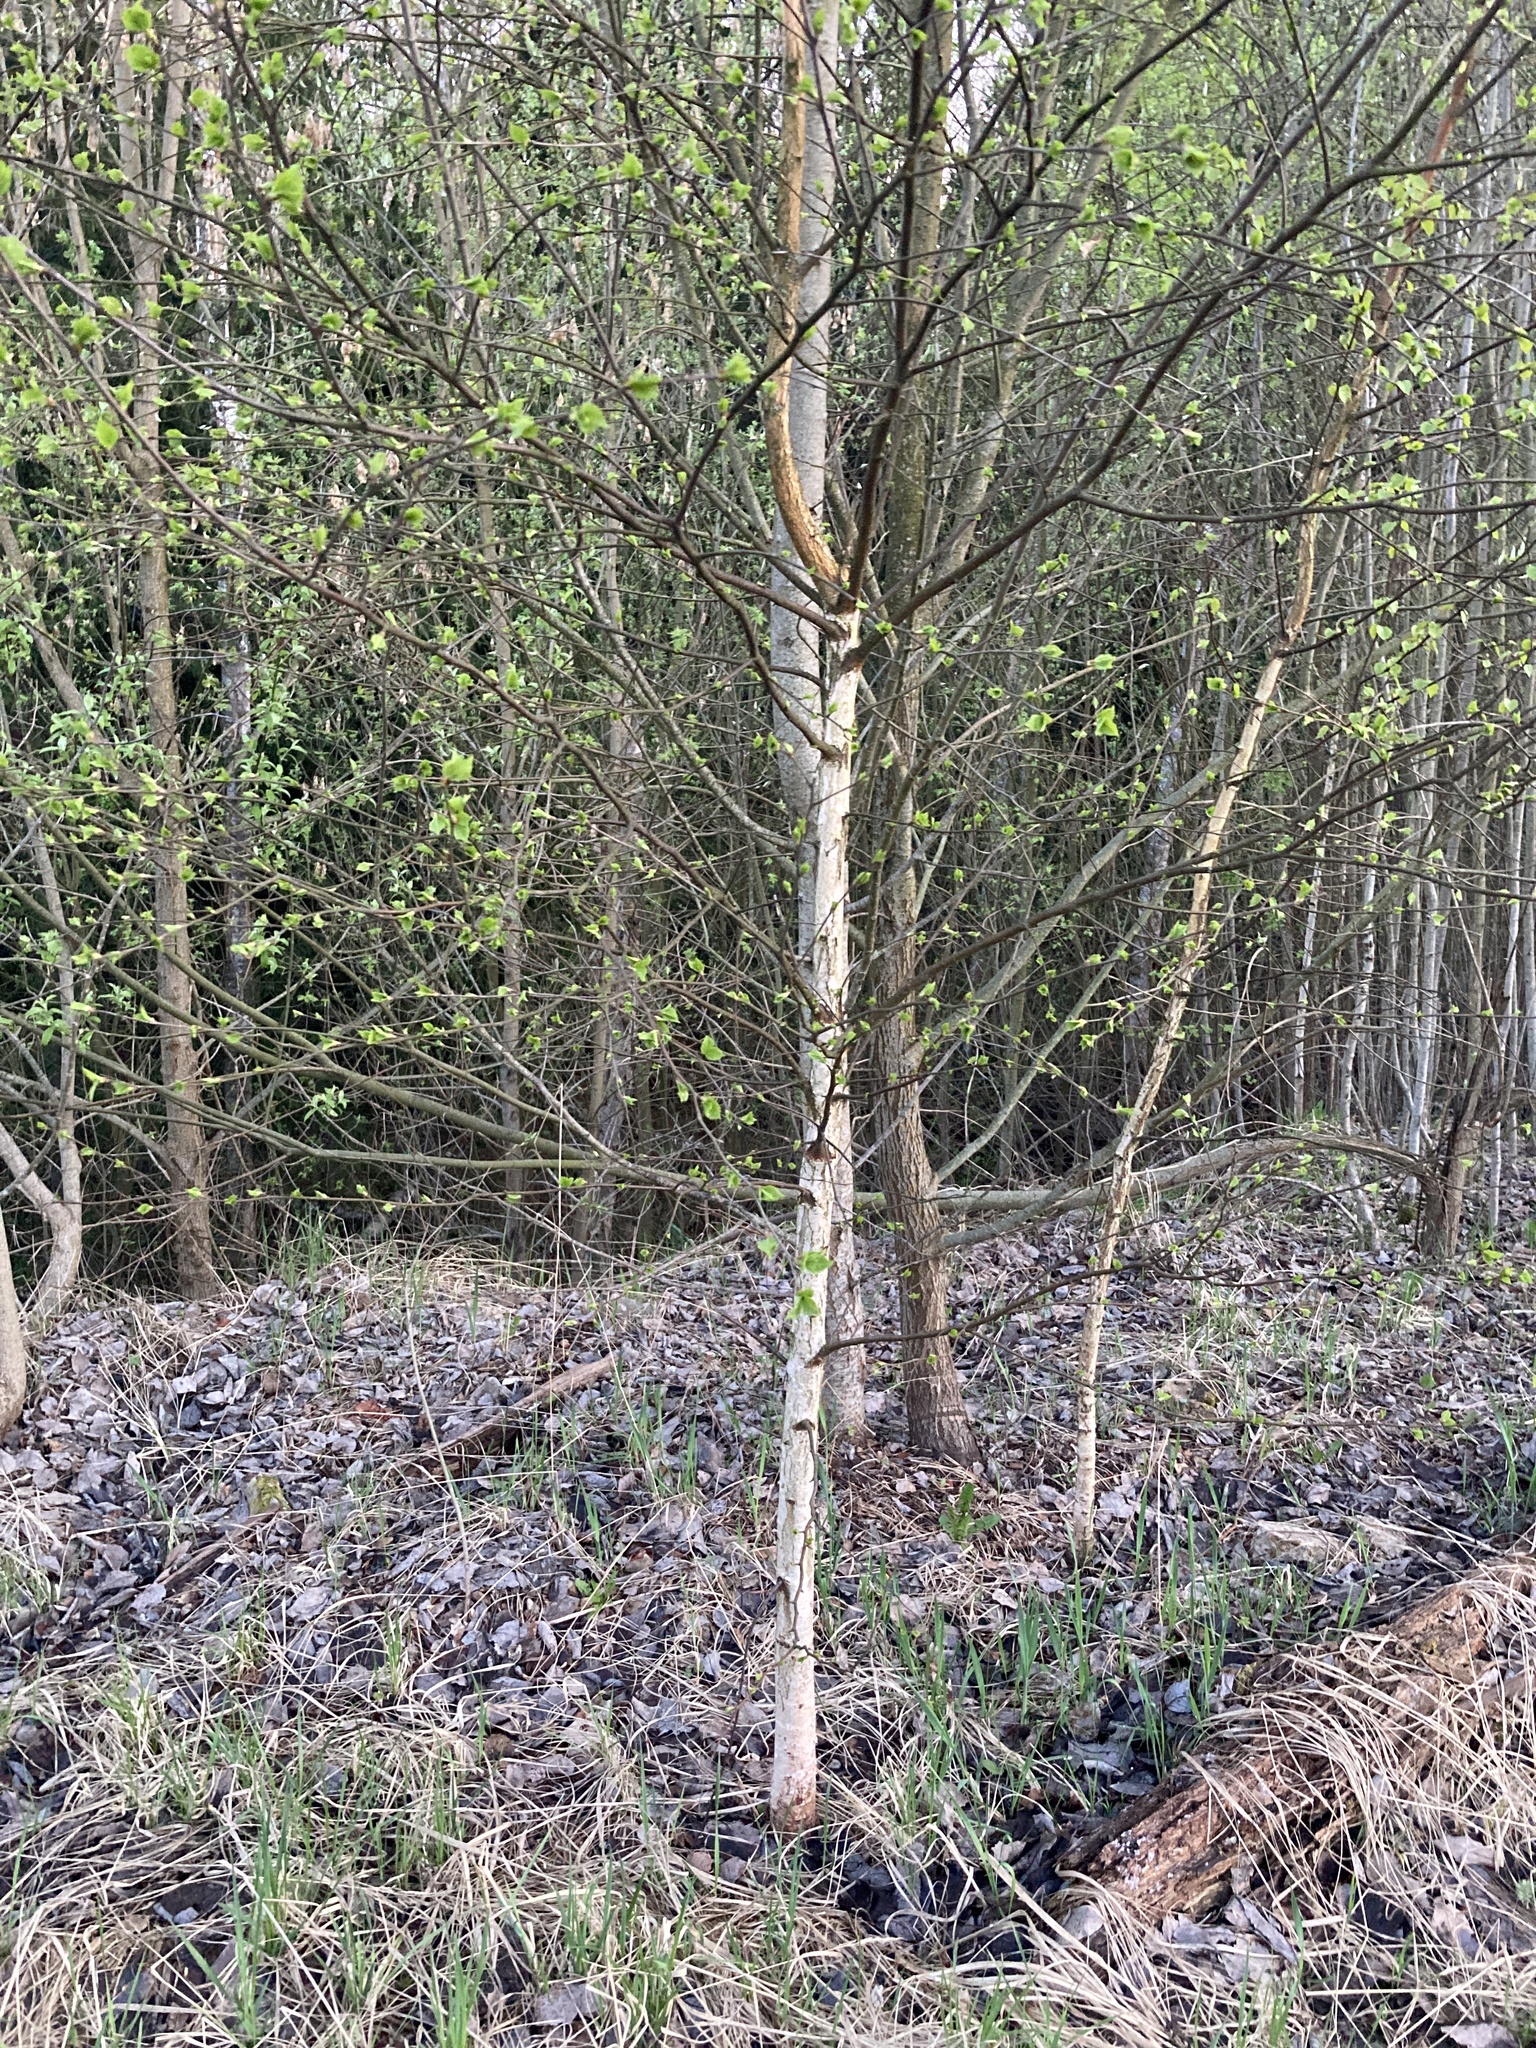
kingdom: Plantae
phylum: Tracheophyta
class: Magnoliopsida
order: Fagales
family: Betulaceae
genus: Betula
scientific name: Betula pendula
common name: Silver birch
